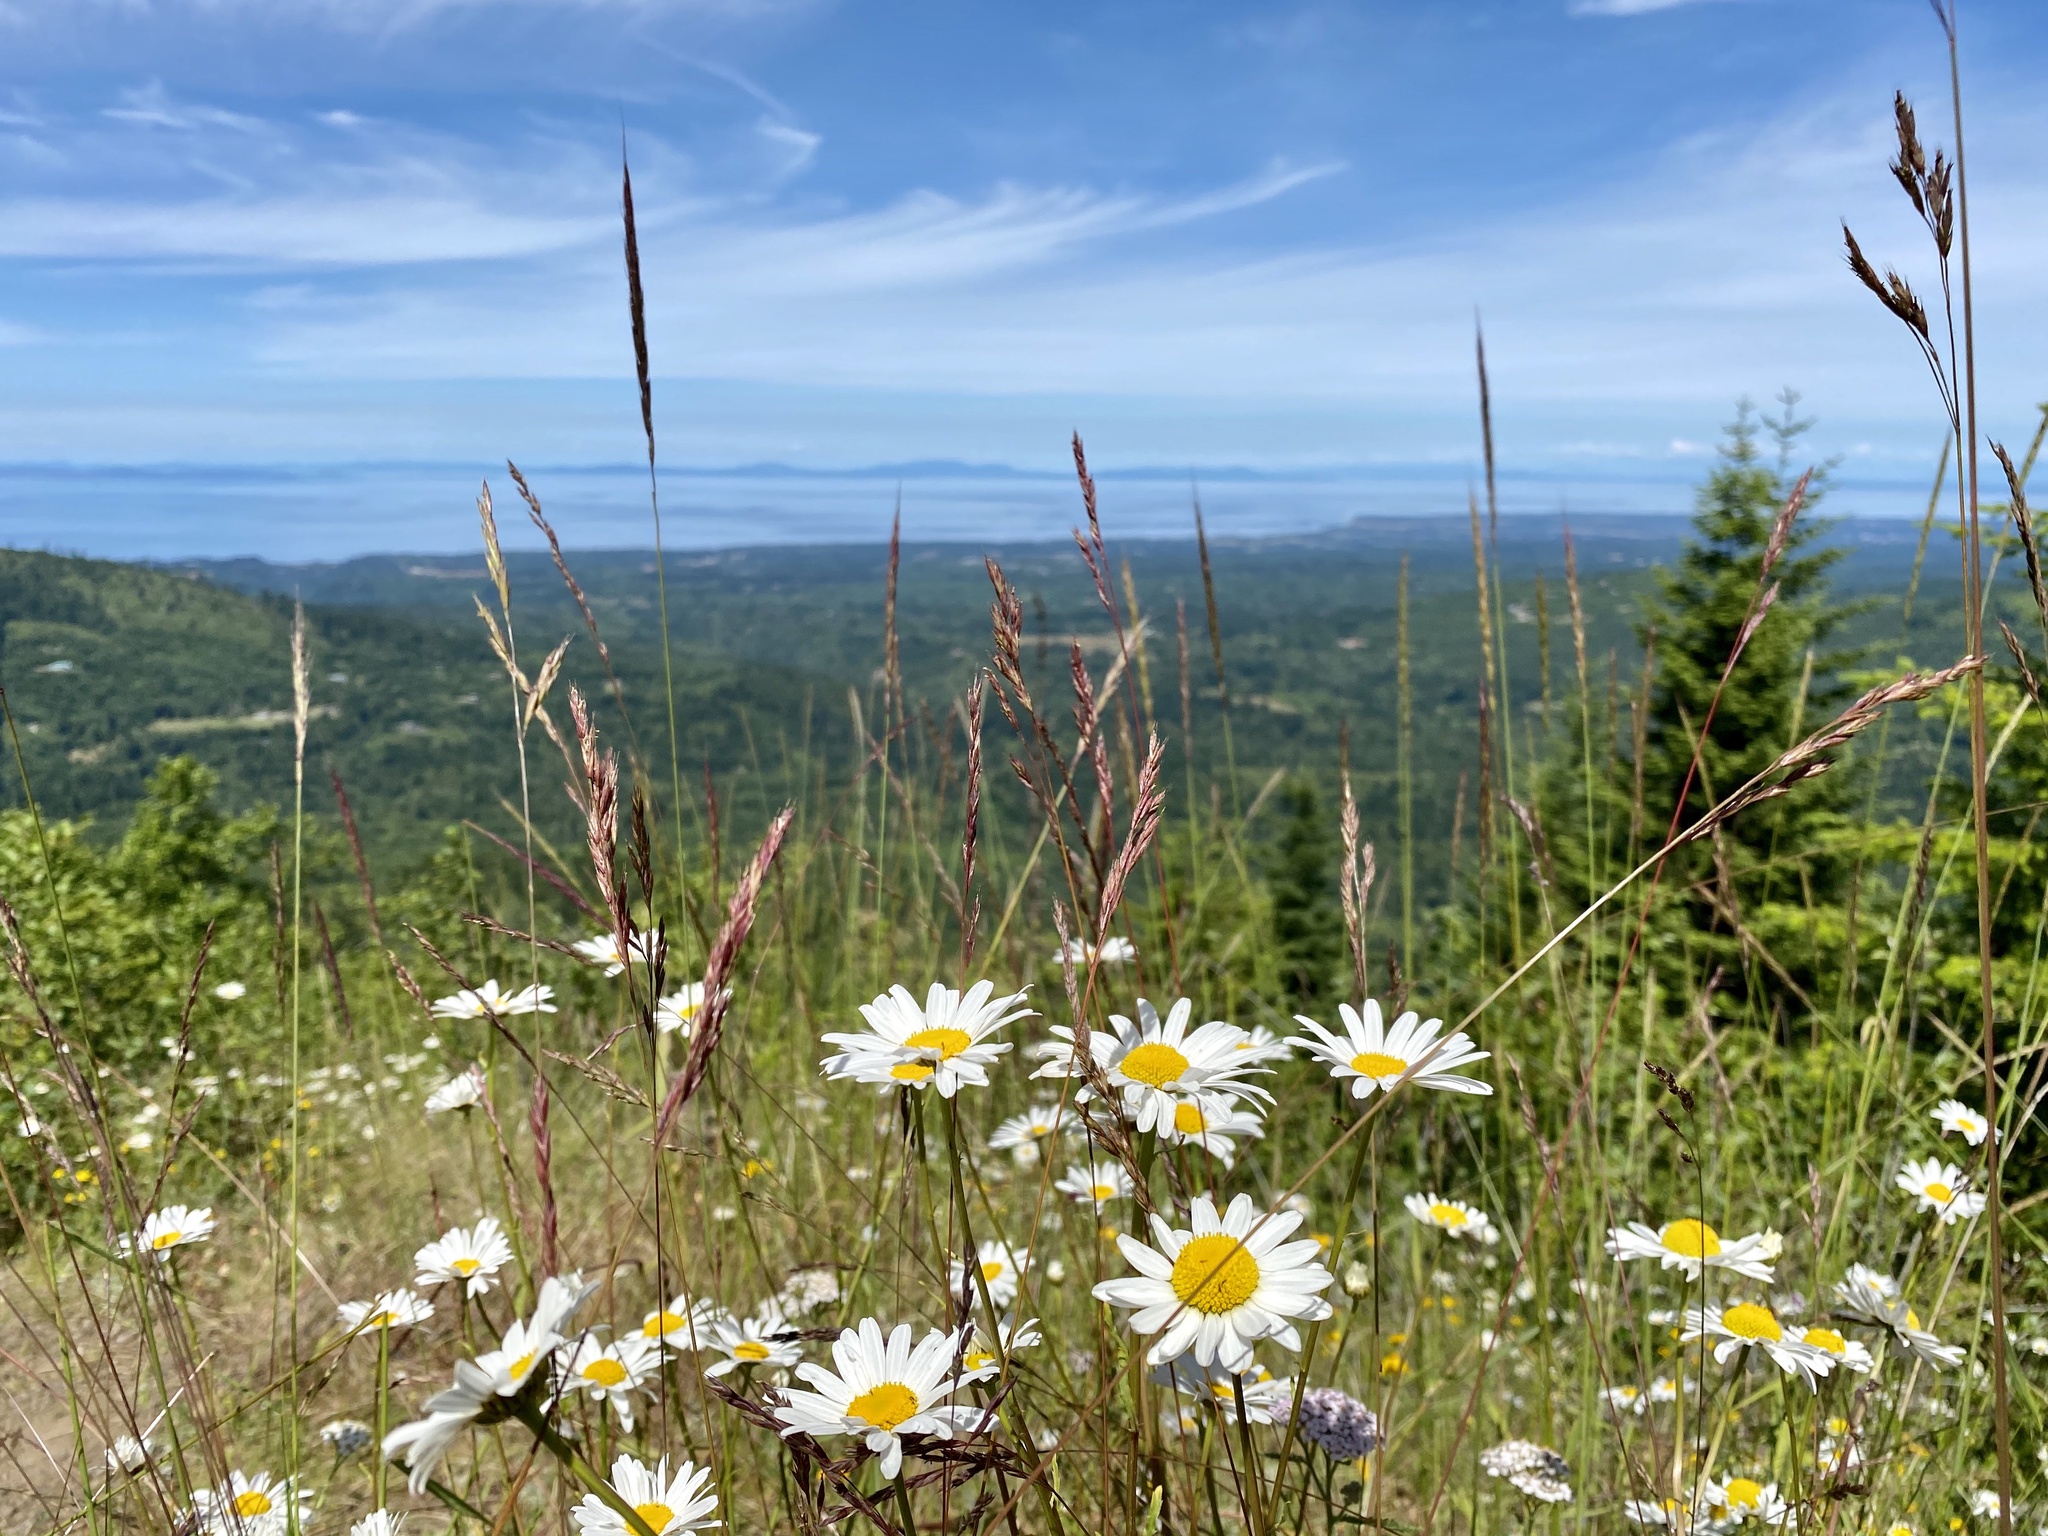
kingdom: Plantae
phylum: Tracheophyta
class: Magnoliopsida
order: Asterales
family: Asteraceae
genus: Leucanthemum
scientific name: Leucanthemum vulgare
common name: Oxeye daisy
